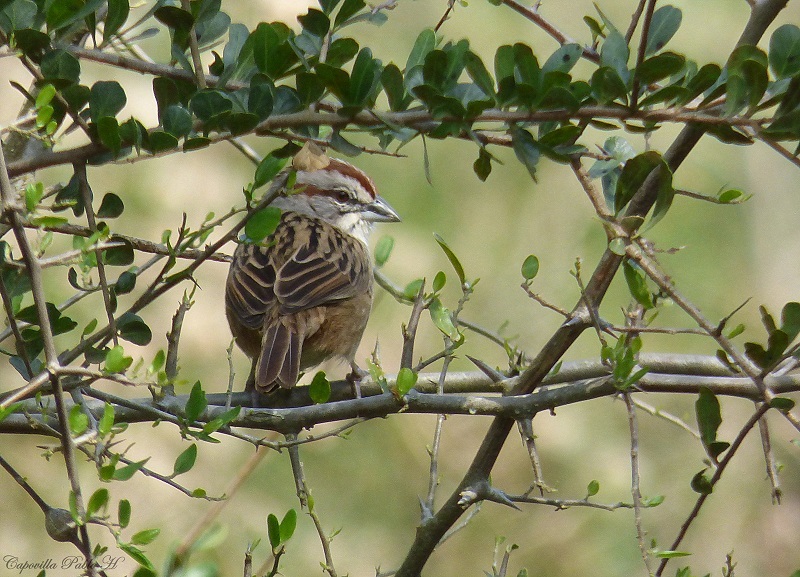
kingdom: Animalia
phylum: Chordata
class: Aves
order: Passeriformes
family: Passerellidae
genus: Rhynchospiza
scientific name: Rhynchospiza strigiceps
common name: Stripe-capped sparrow
